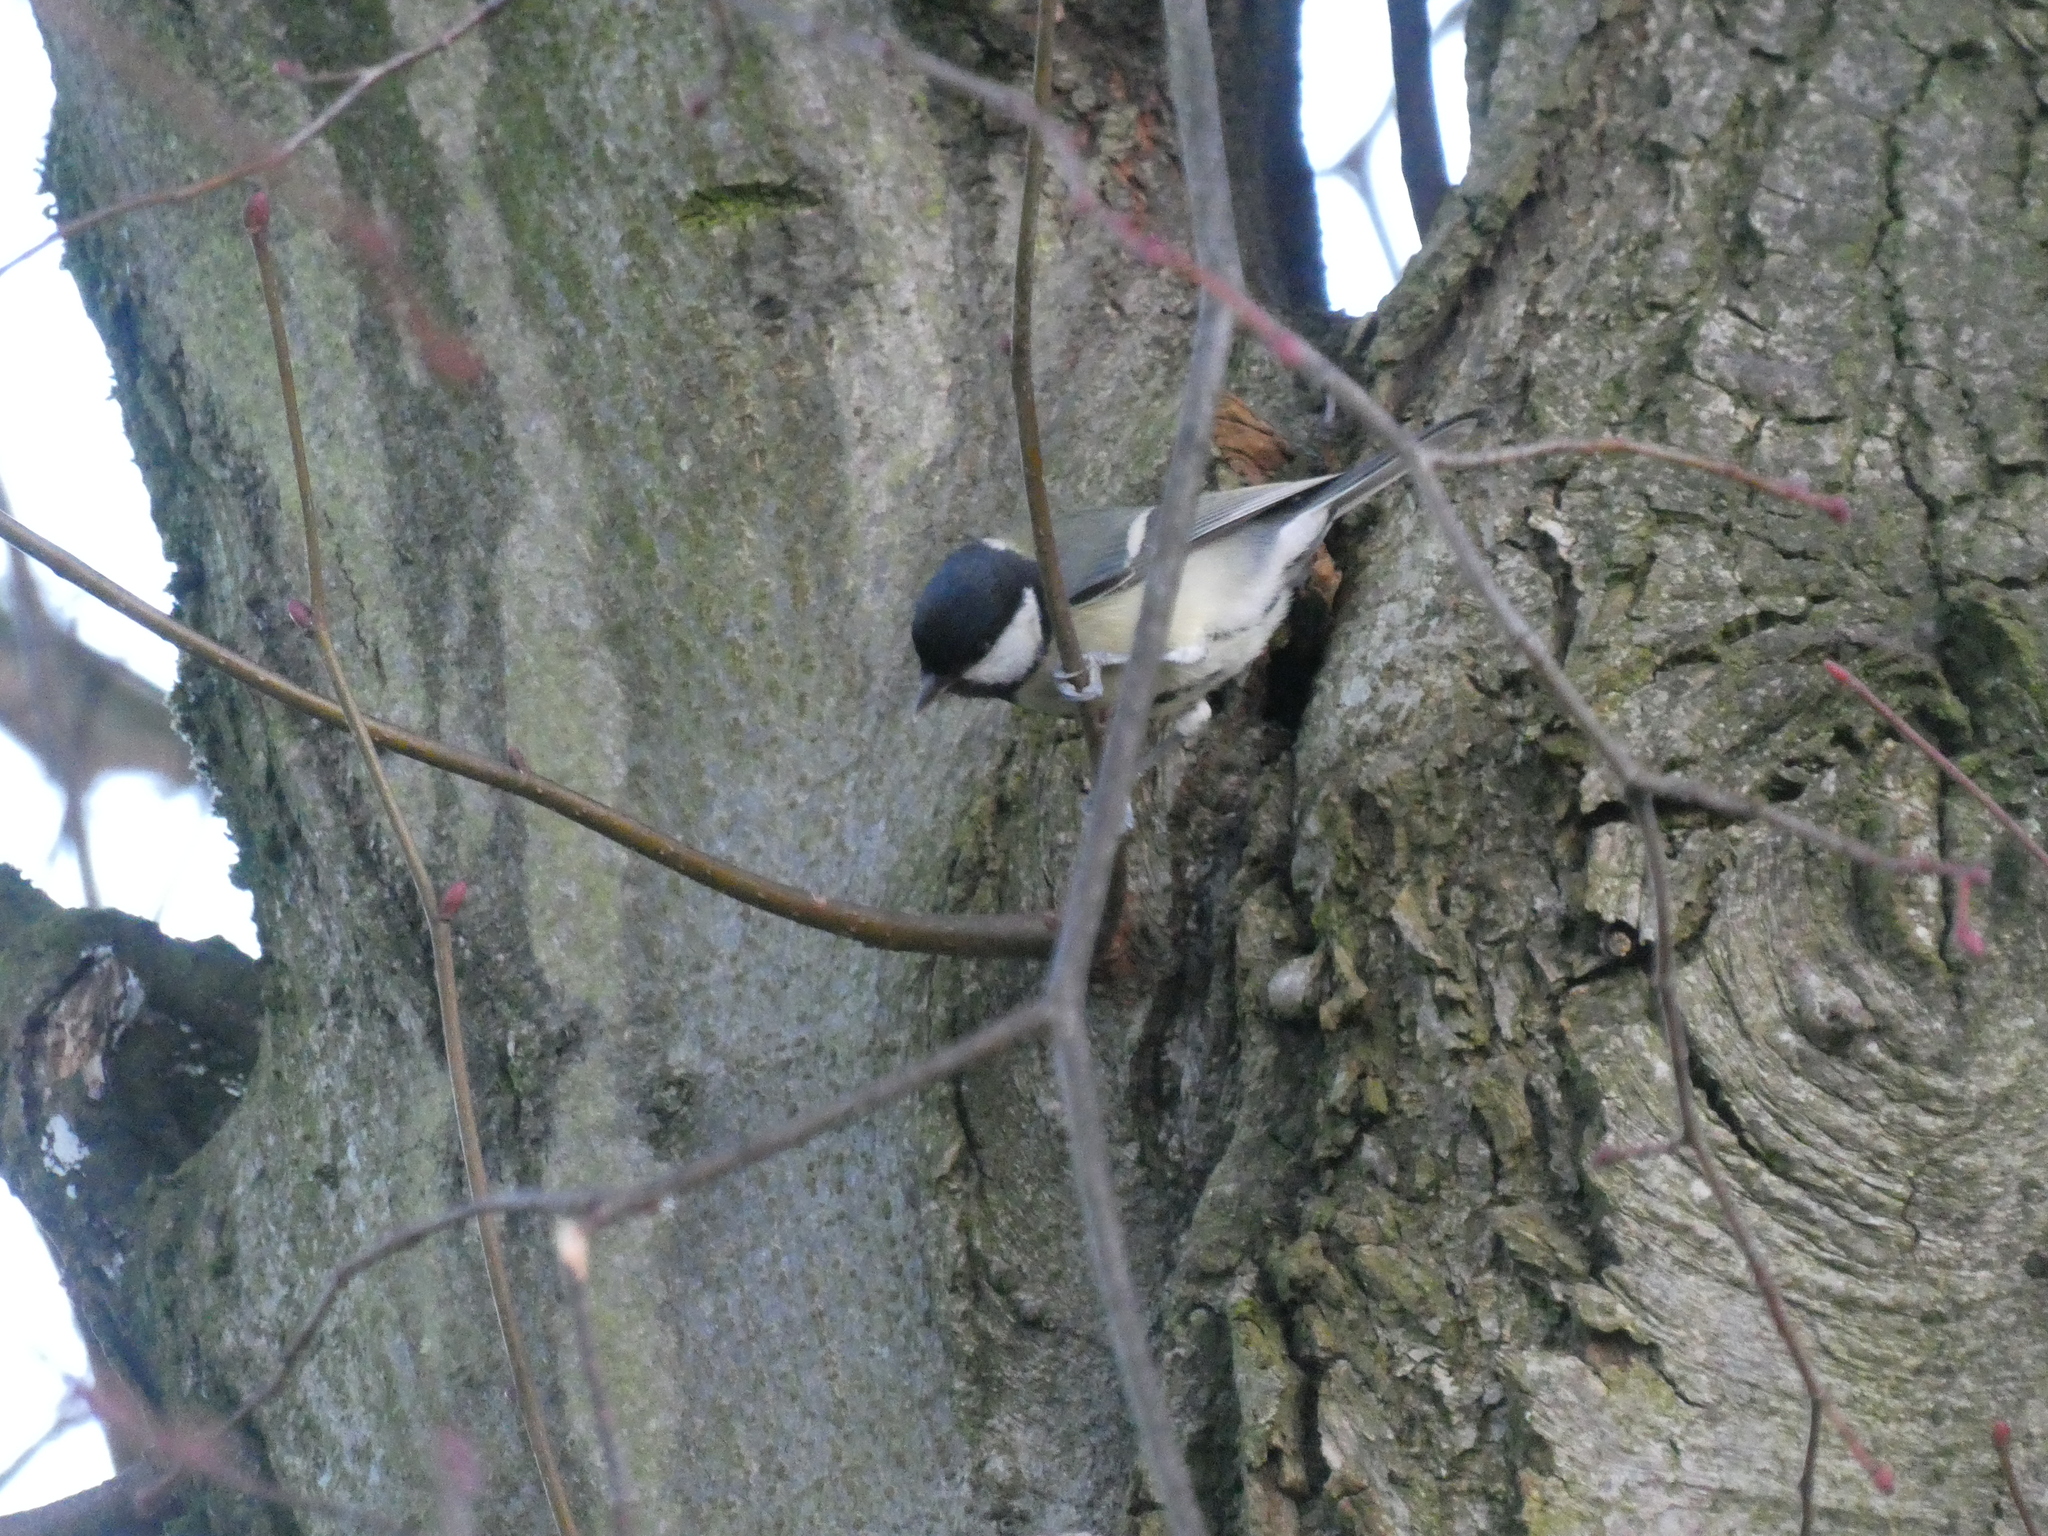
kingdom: Animalia
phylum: Chordata
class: Aves
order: Passeriformes
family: Paridae
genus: Parus
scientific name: Parus major
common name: Great tit
